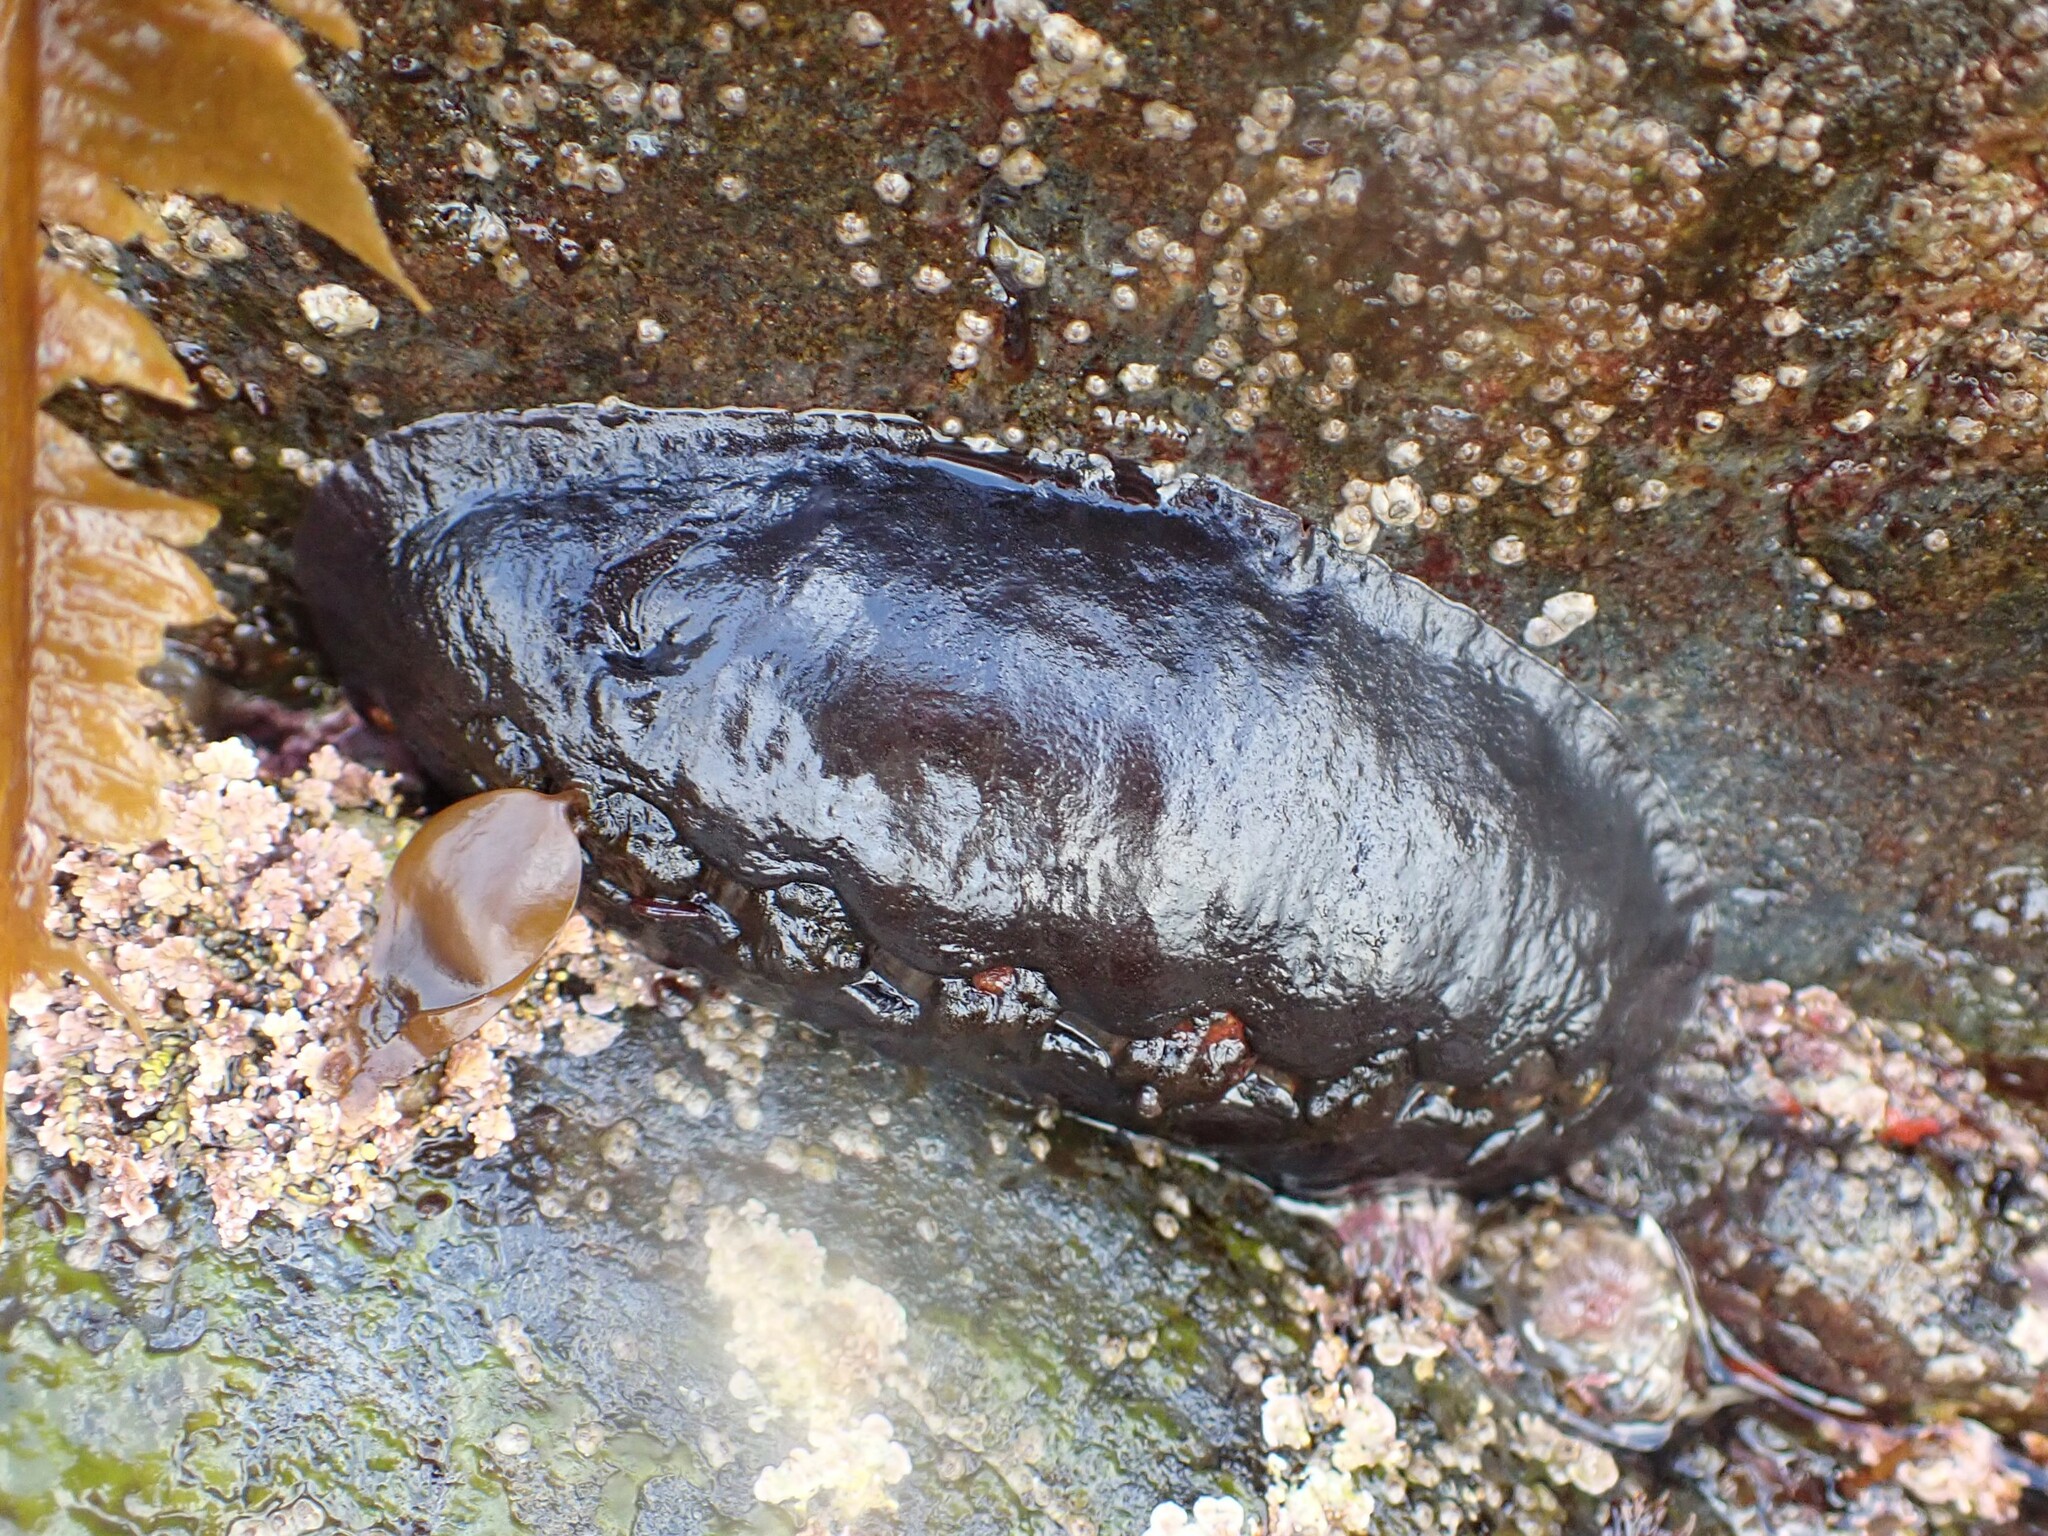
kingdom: Animalia
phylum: Mollusca
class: Polyplacophora
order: Chitonida
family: Mopaliidae
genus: Katharina
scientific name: Katharina tunicata
